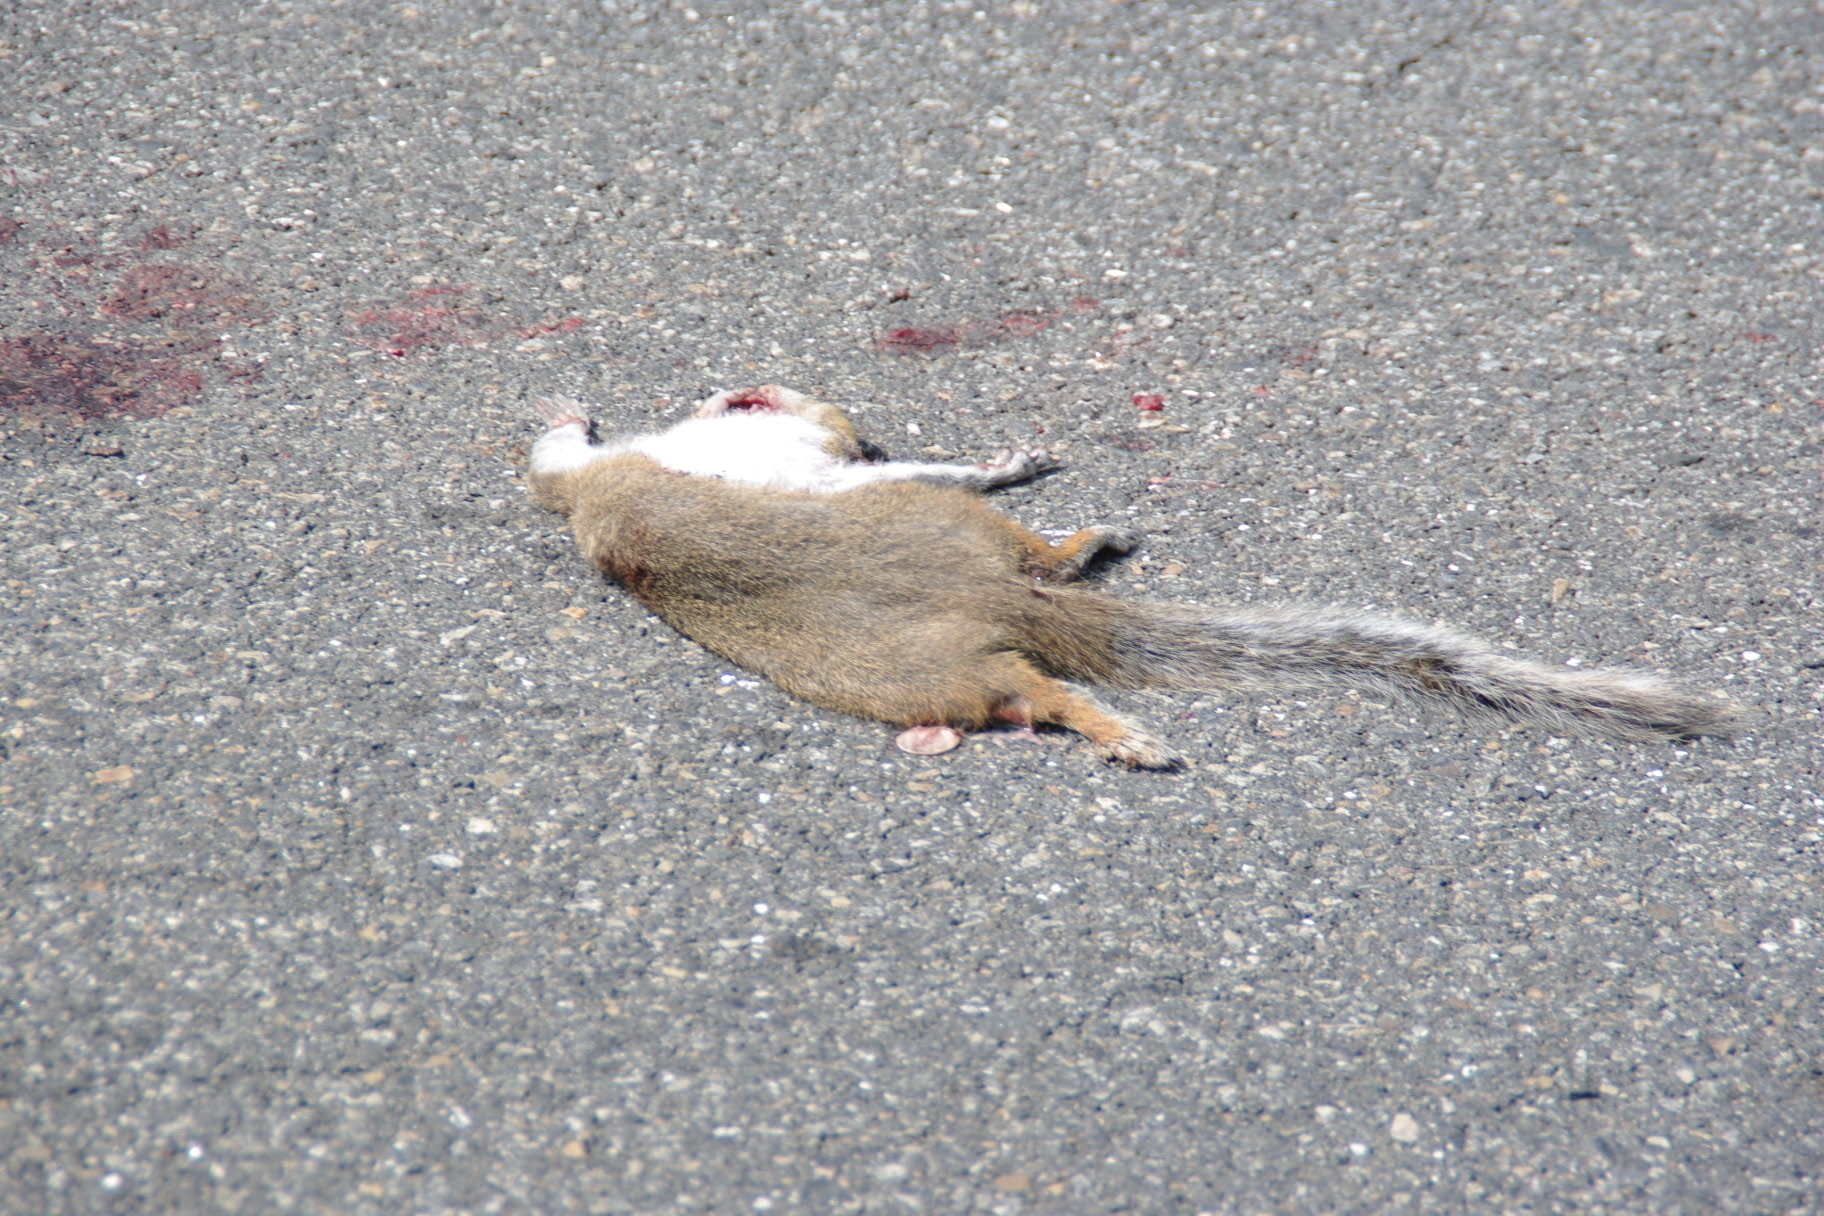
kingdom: Animalia
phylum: Chordata
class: Mammalia
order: Rodentia
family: Sciuridae
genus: Sciurus
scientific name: Sciurus carolinensis
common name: Eastern gray squirrel
